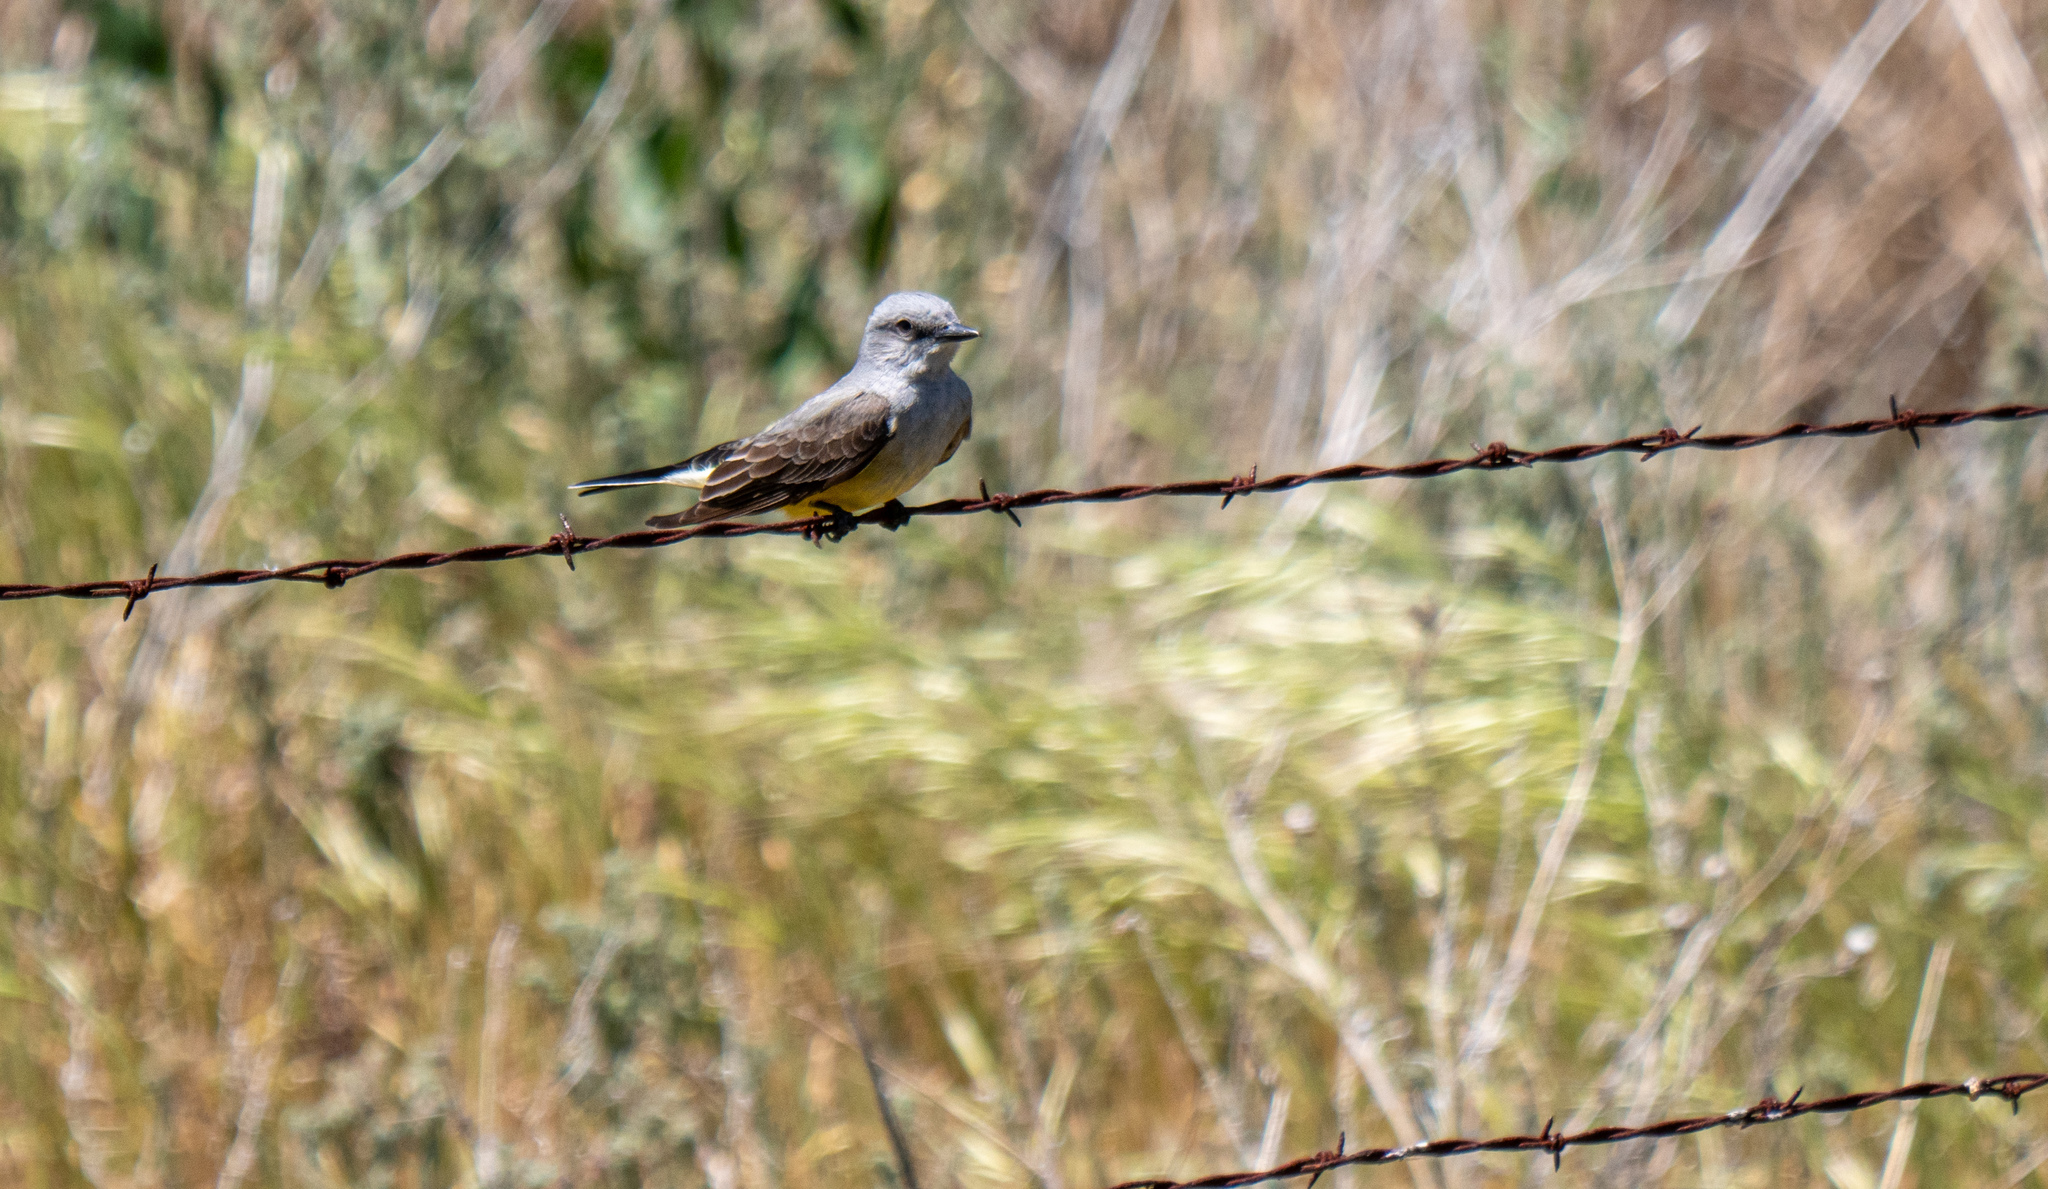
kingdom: Animalia
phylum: Chordata
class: Aves
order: Passeriformes
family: Tyrannidae
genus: Tyrannus
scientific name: Tyrannus verticalis
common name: Western kingbird
